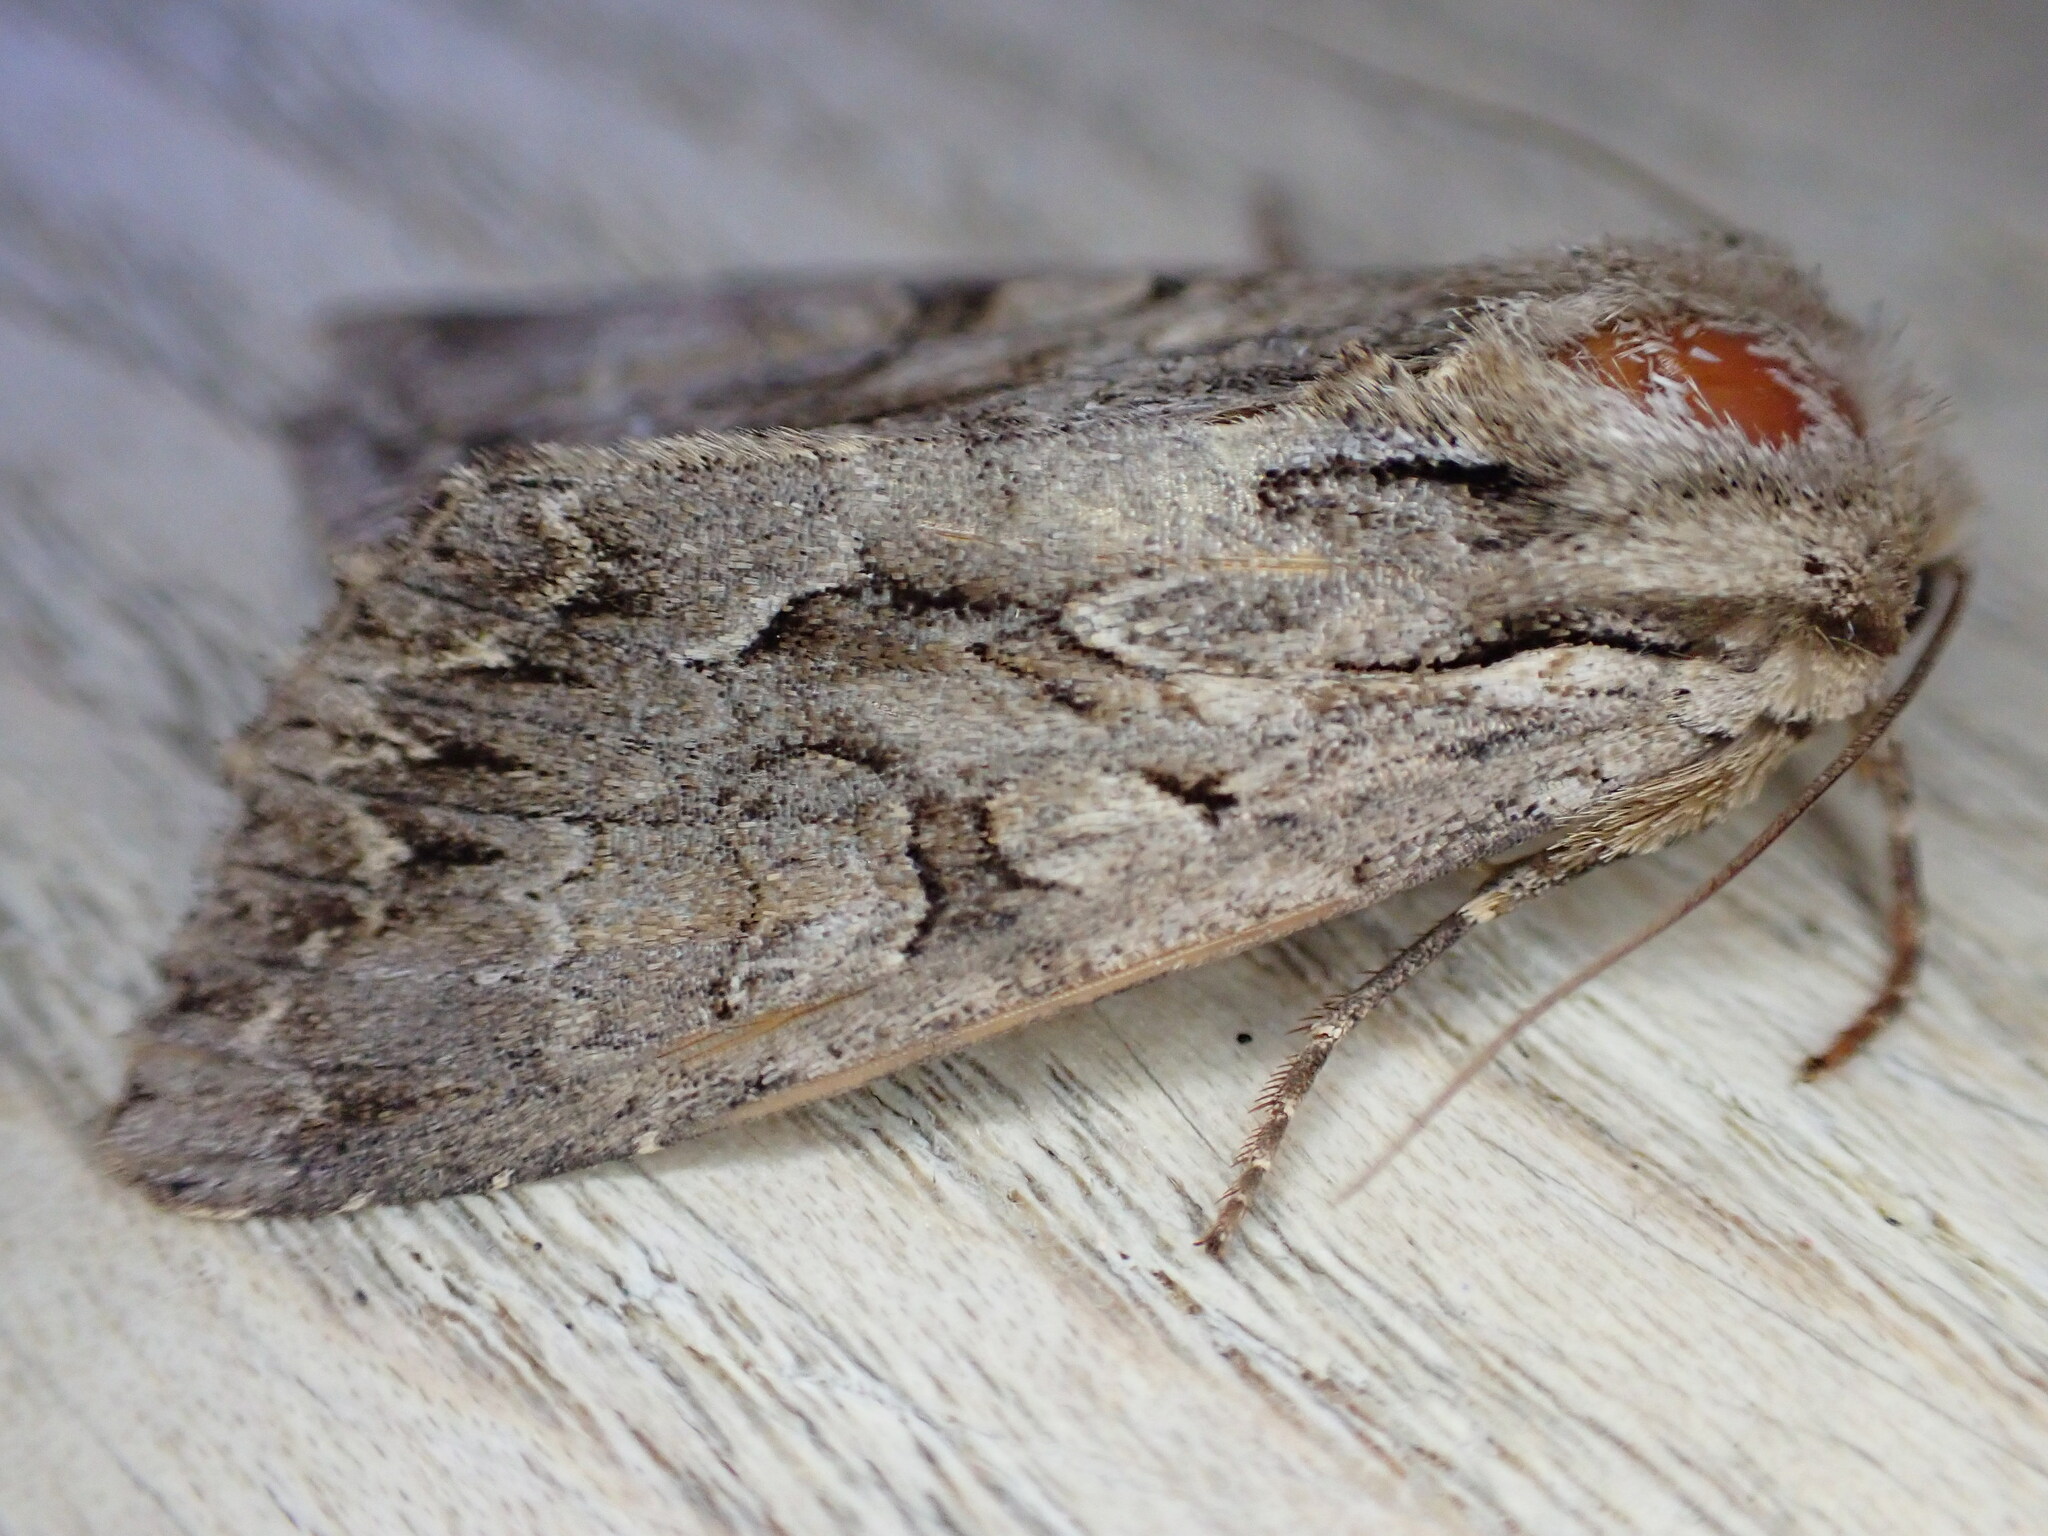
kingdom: Animalia
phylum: Arthropoda
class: Insecta
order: Lepidoptera
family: Noctuidae
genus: Apamea
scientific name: Apamea monoglypha
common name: Dark arches
